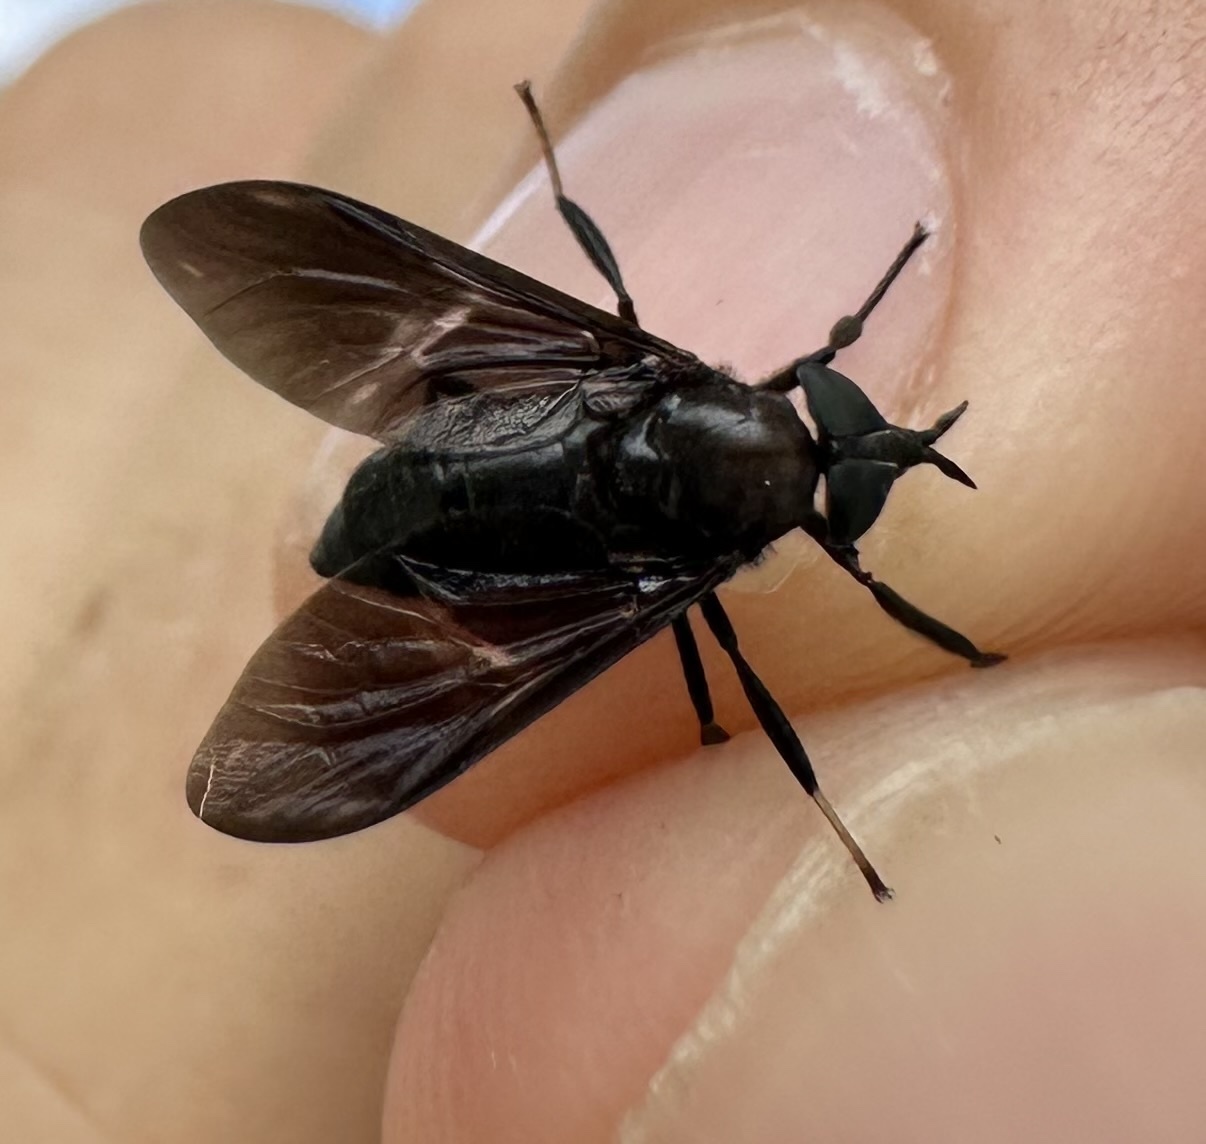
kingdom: Animalia
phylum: Arthropoda
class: Insecta
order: Diptera
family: Tabanidae
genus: Jashinea
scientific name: Jashinea lugubris
